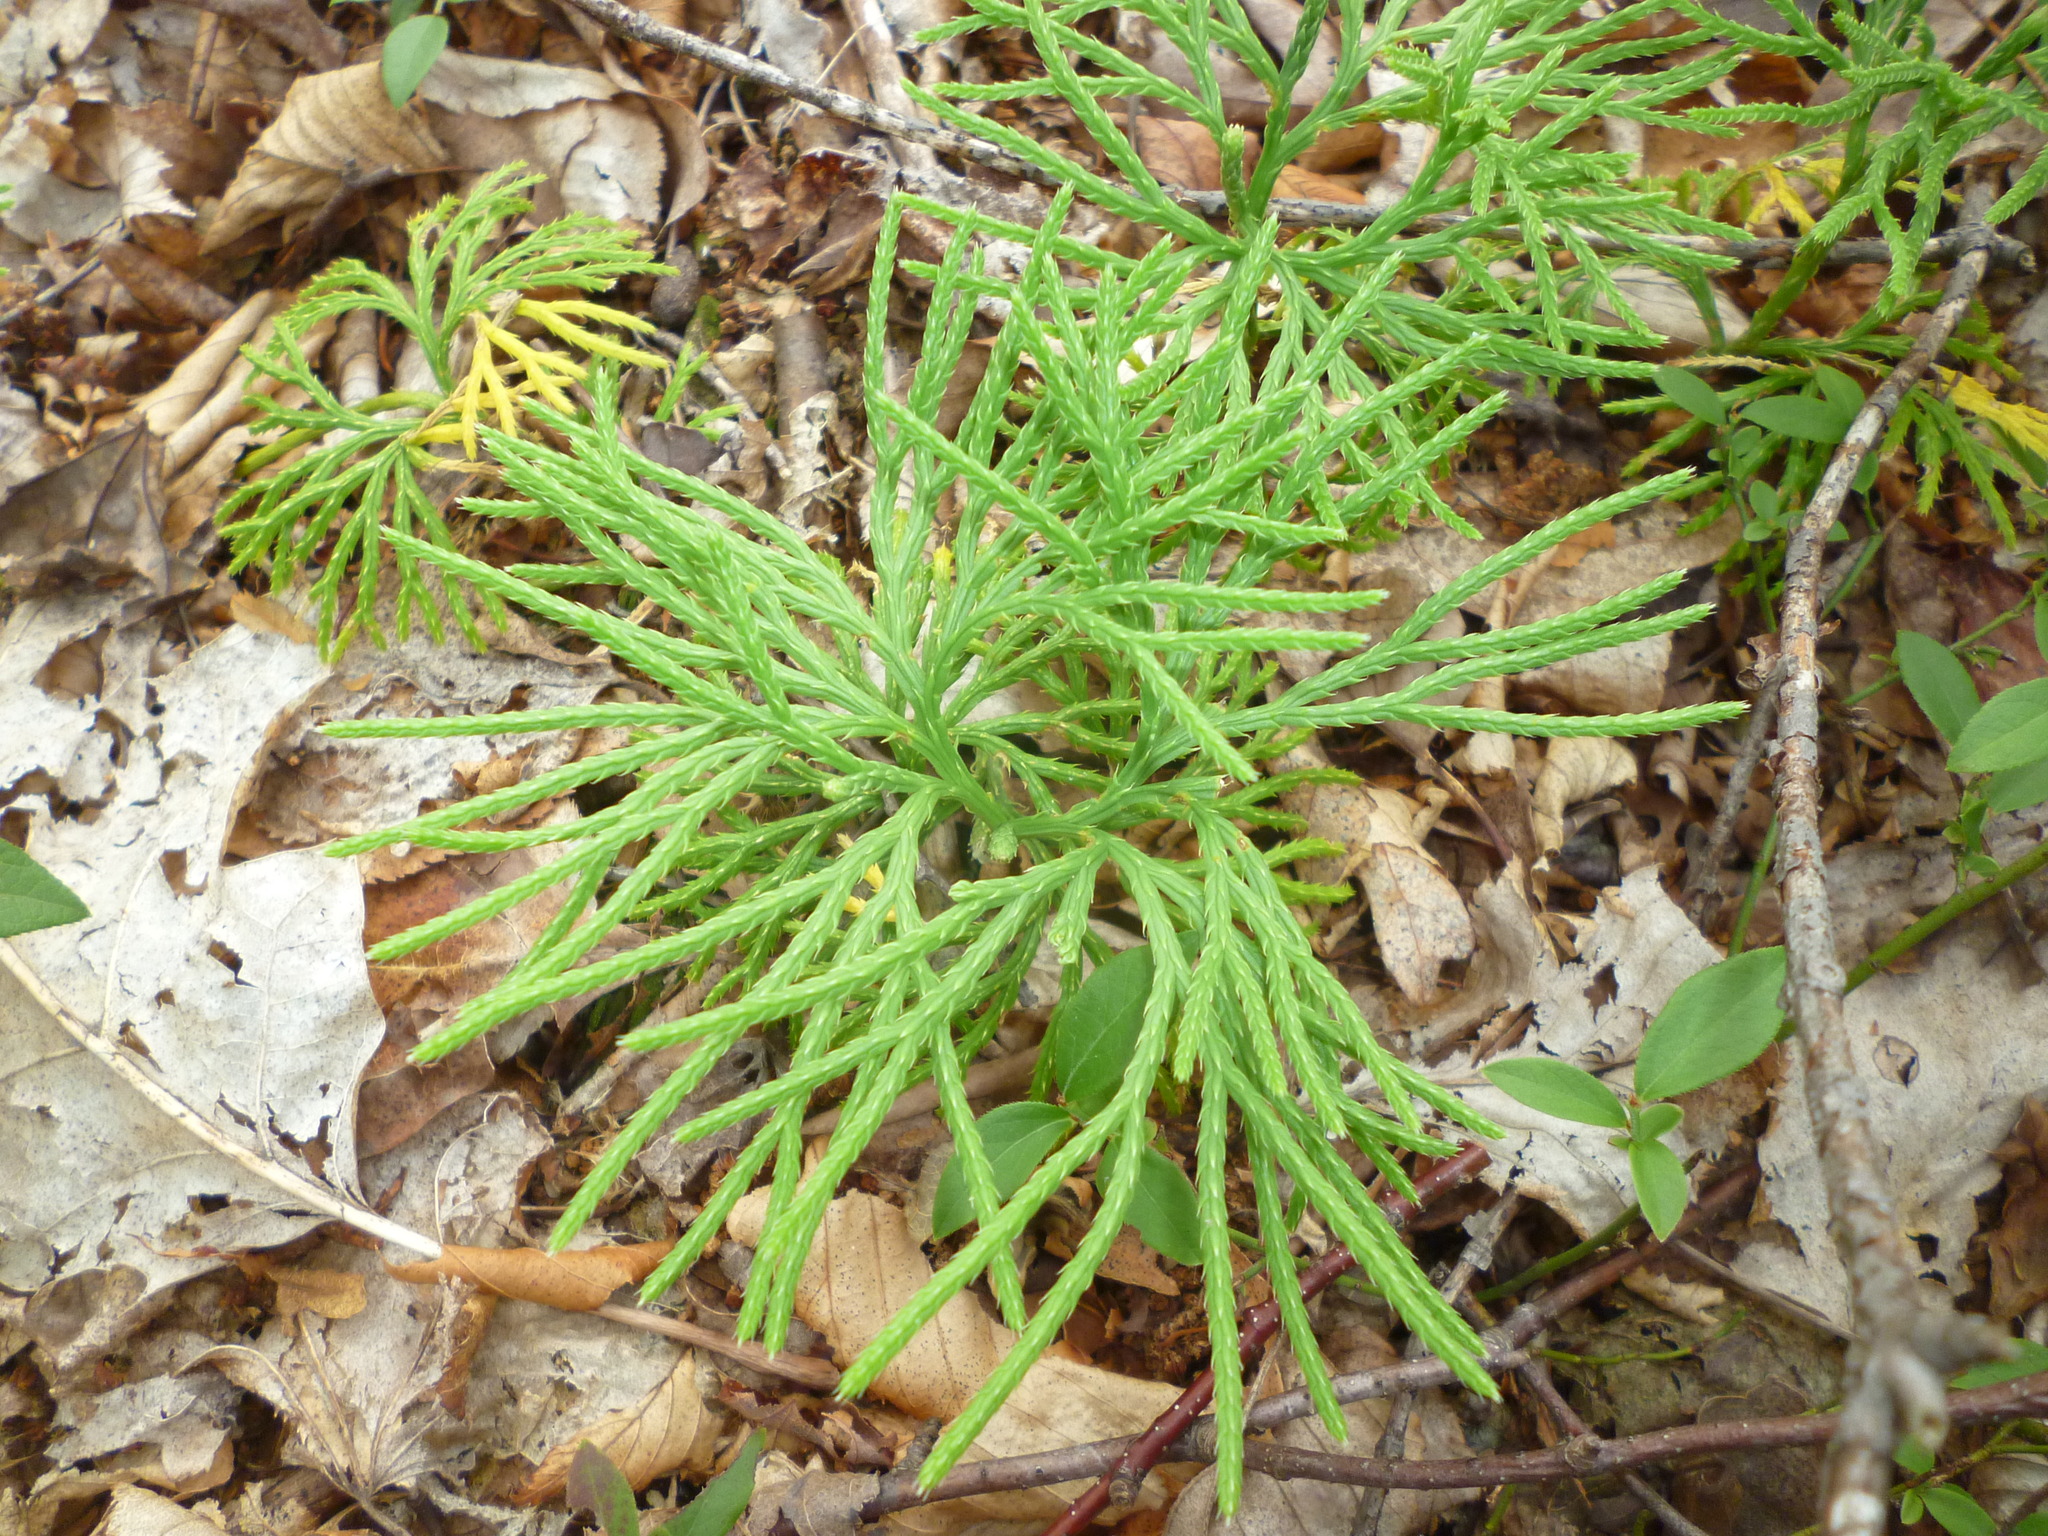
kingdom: Plantae
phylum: Tracheophyta
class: Lycopodiopsida
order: Lycopodiales
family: Lycopodiaceae
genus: Diphasiastrum
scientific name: Diphasiastrum digitatum
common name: Southern running-pine
